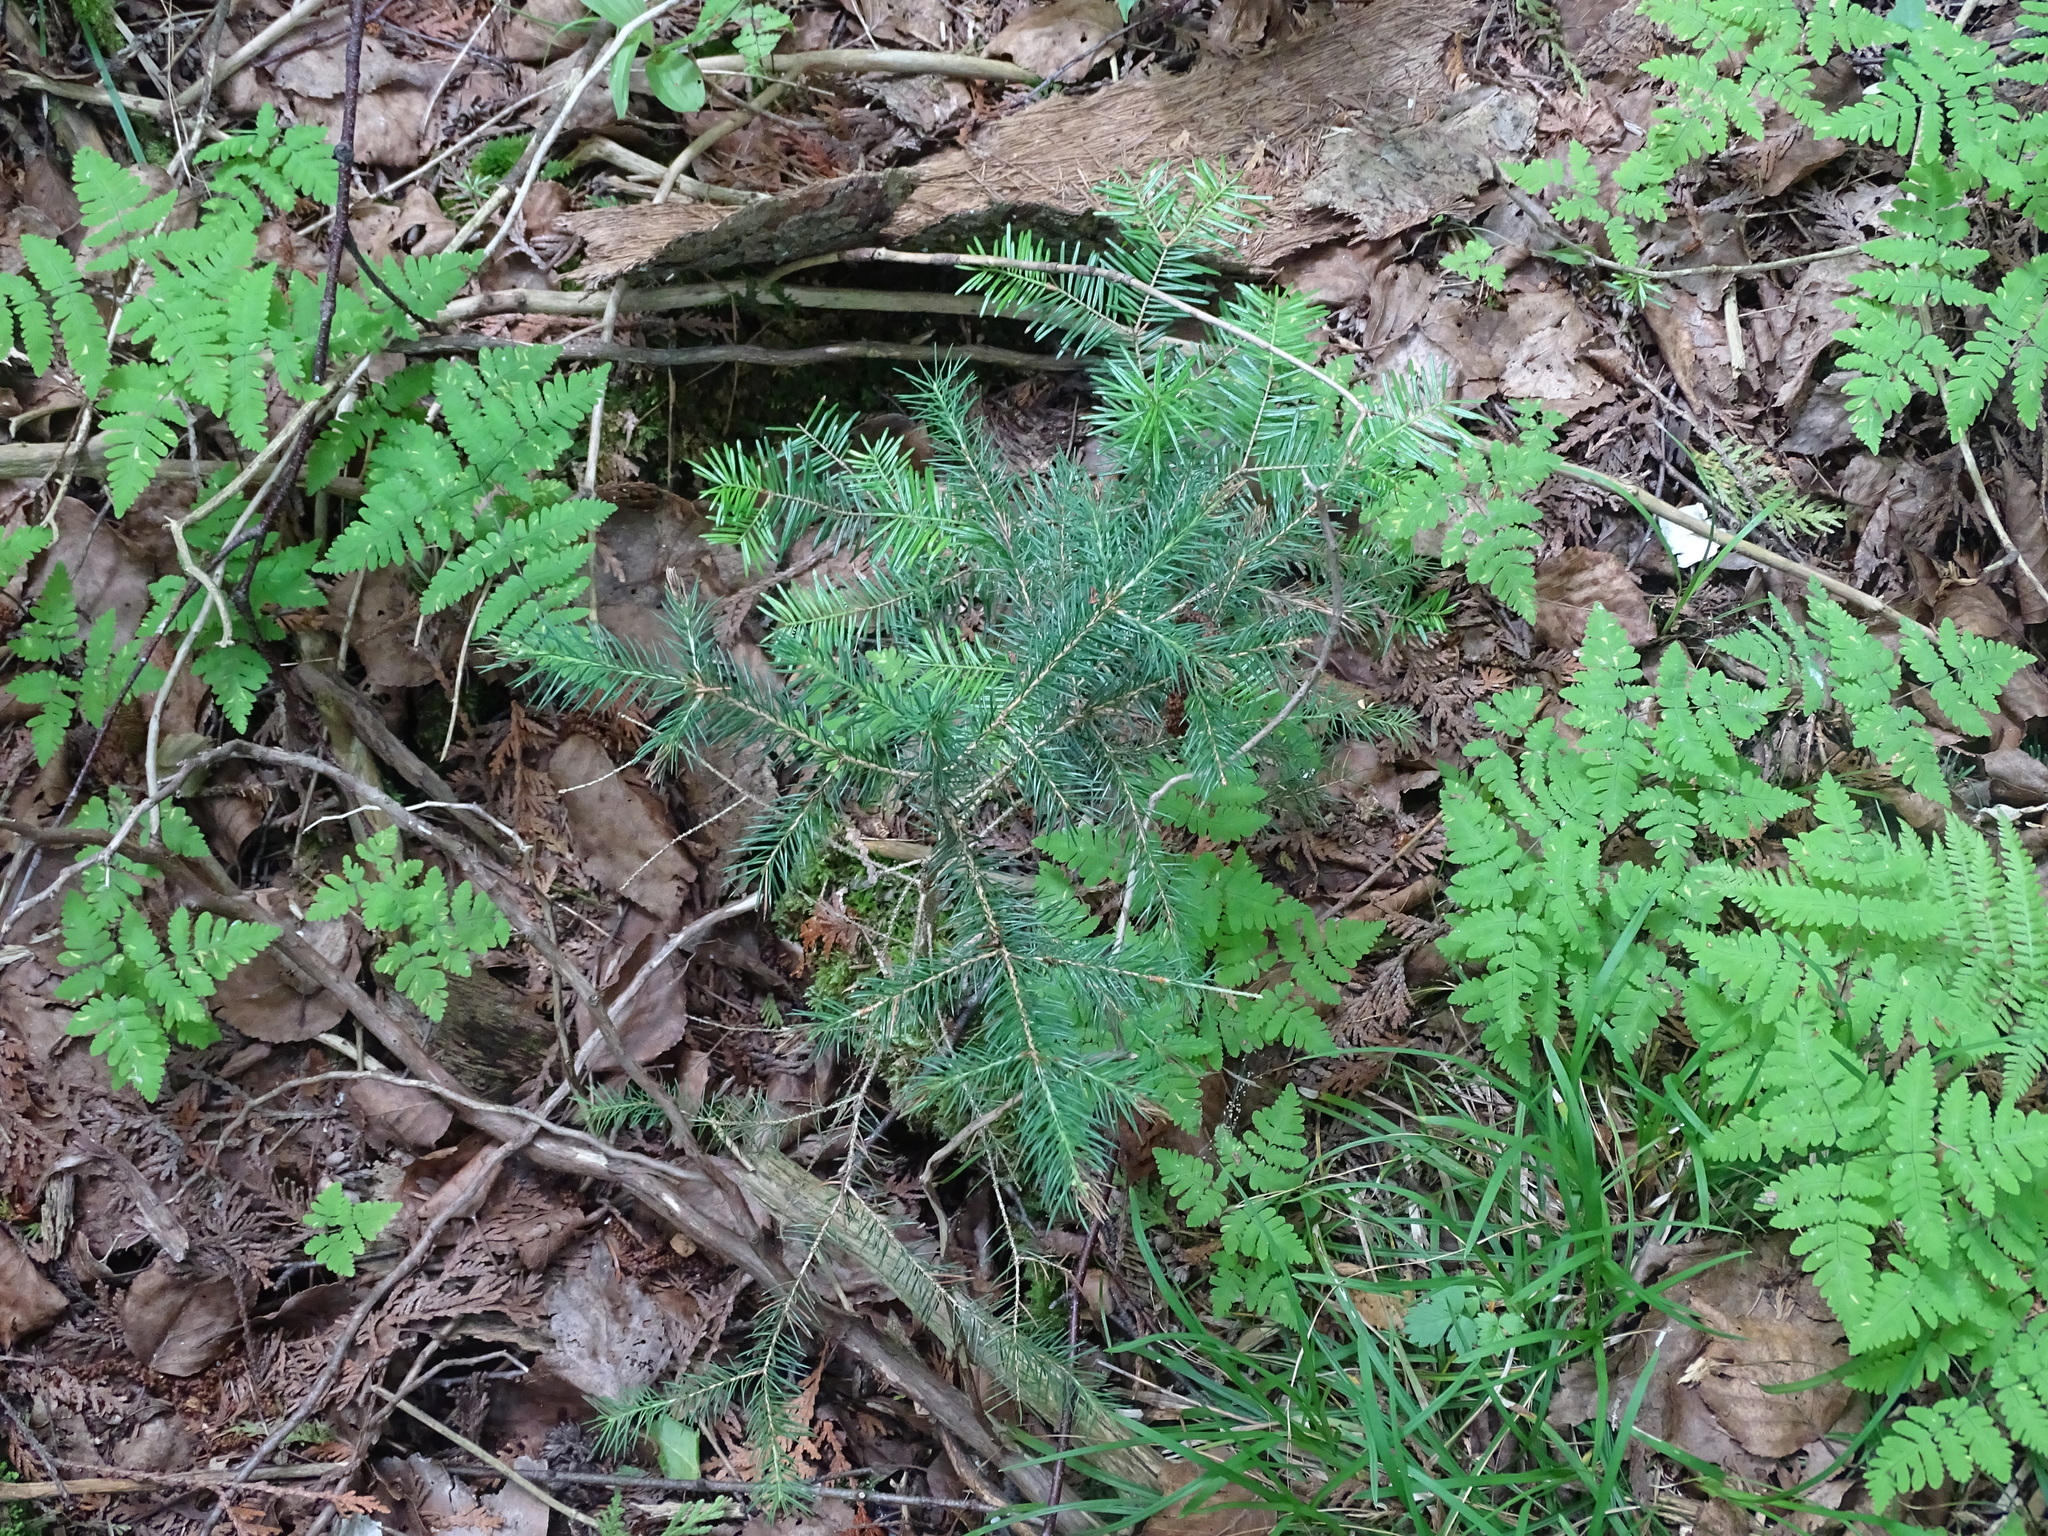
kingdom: Plantae
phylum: Tracheophyta
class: Pinopsida
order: Pinales
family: Pinaceae
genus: Picea
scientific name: Picea glauca
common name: White spruce
